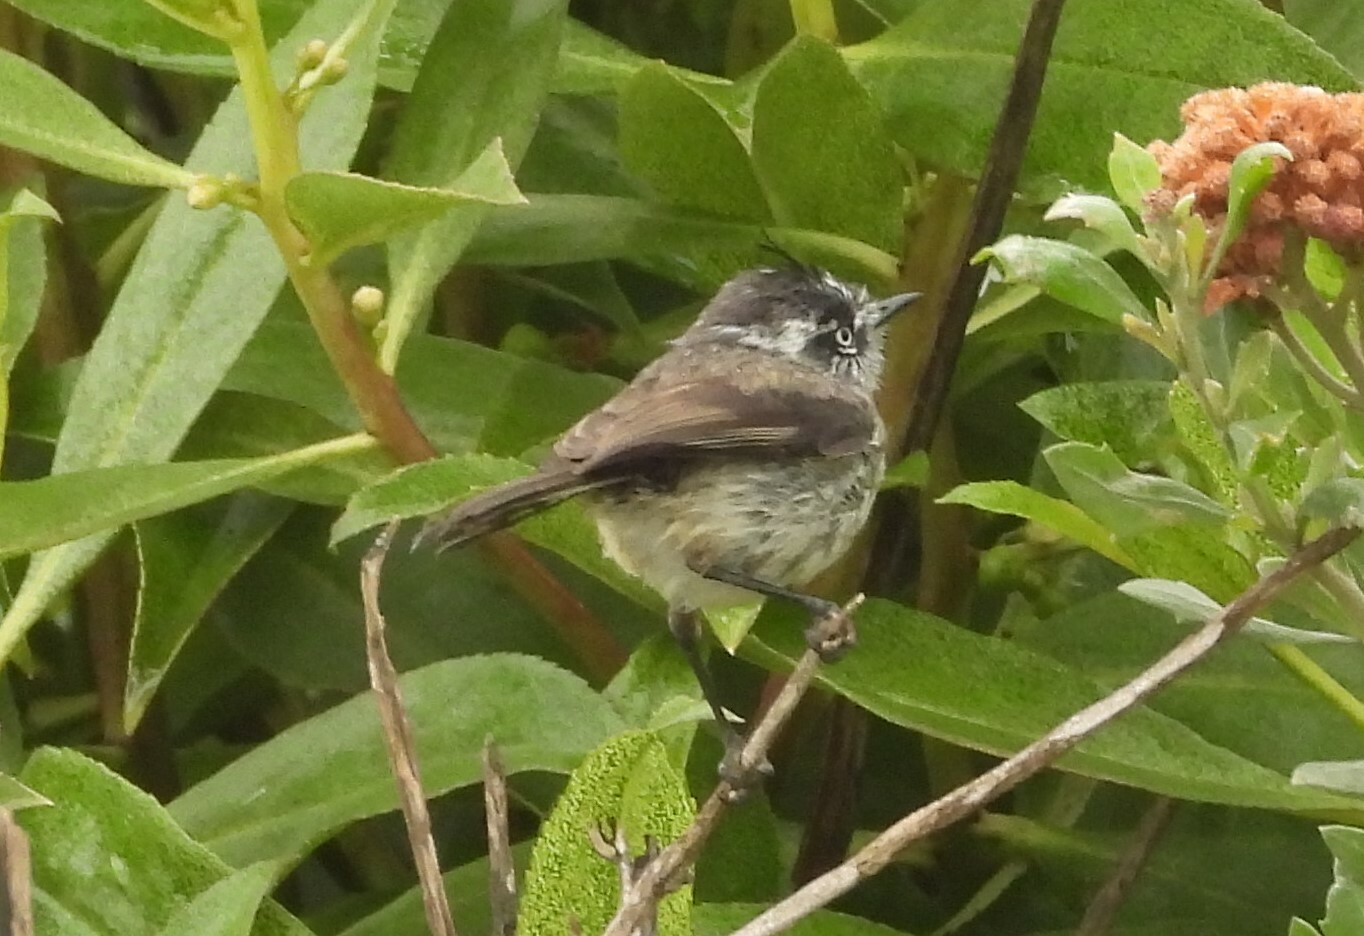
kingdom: Animalia
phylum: Chordata
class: Aves
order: Passeriformes
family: Tyrannidae
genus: Anairetes
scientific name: Anairetes parulus
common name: Tufted tit-tyrant
